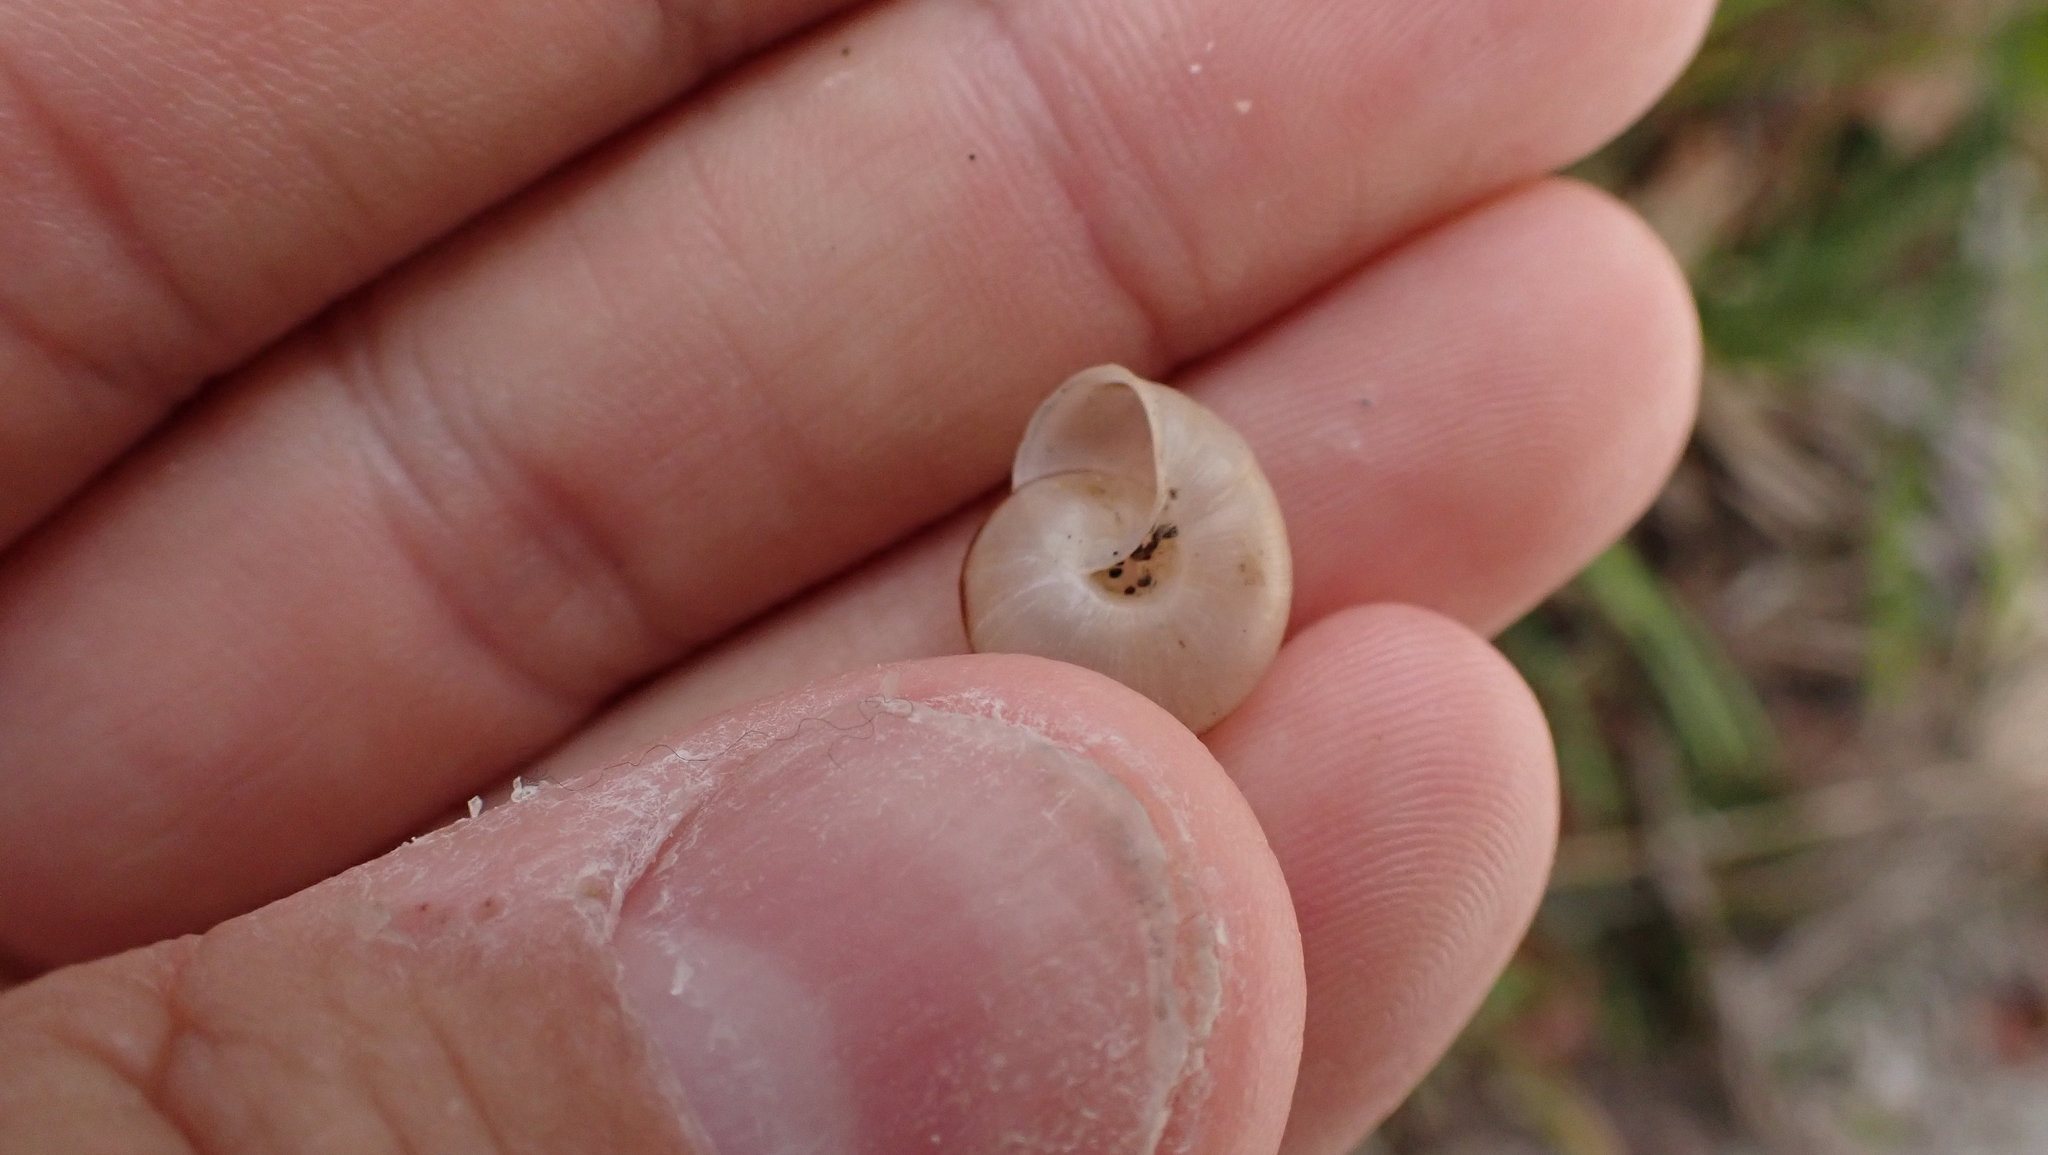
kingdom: Animalia
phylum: Mollusca
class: Gastropoda
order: Stylommatophora
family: Camaenidae
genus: Bradybaena
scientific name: Bradybaena similaris
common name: Asian trampsnail
